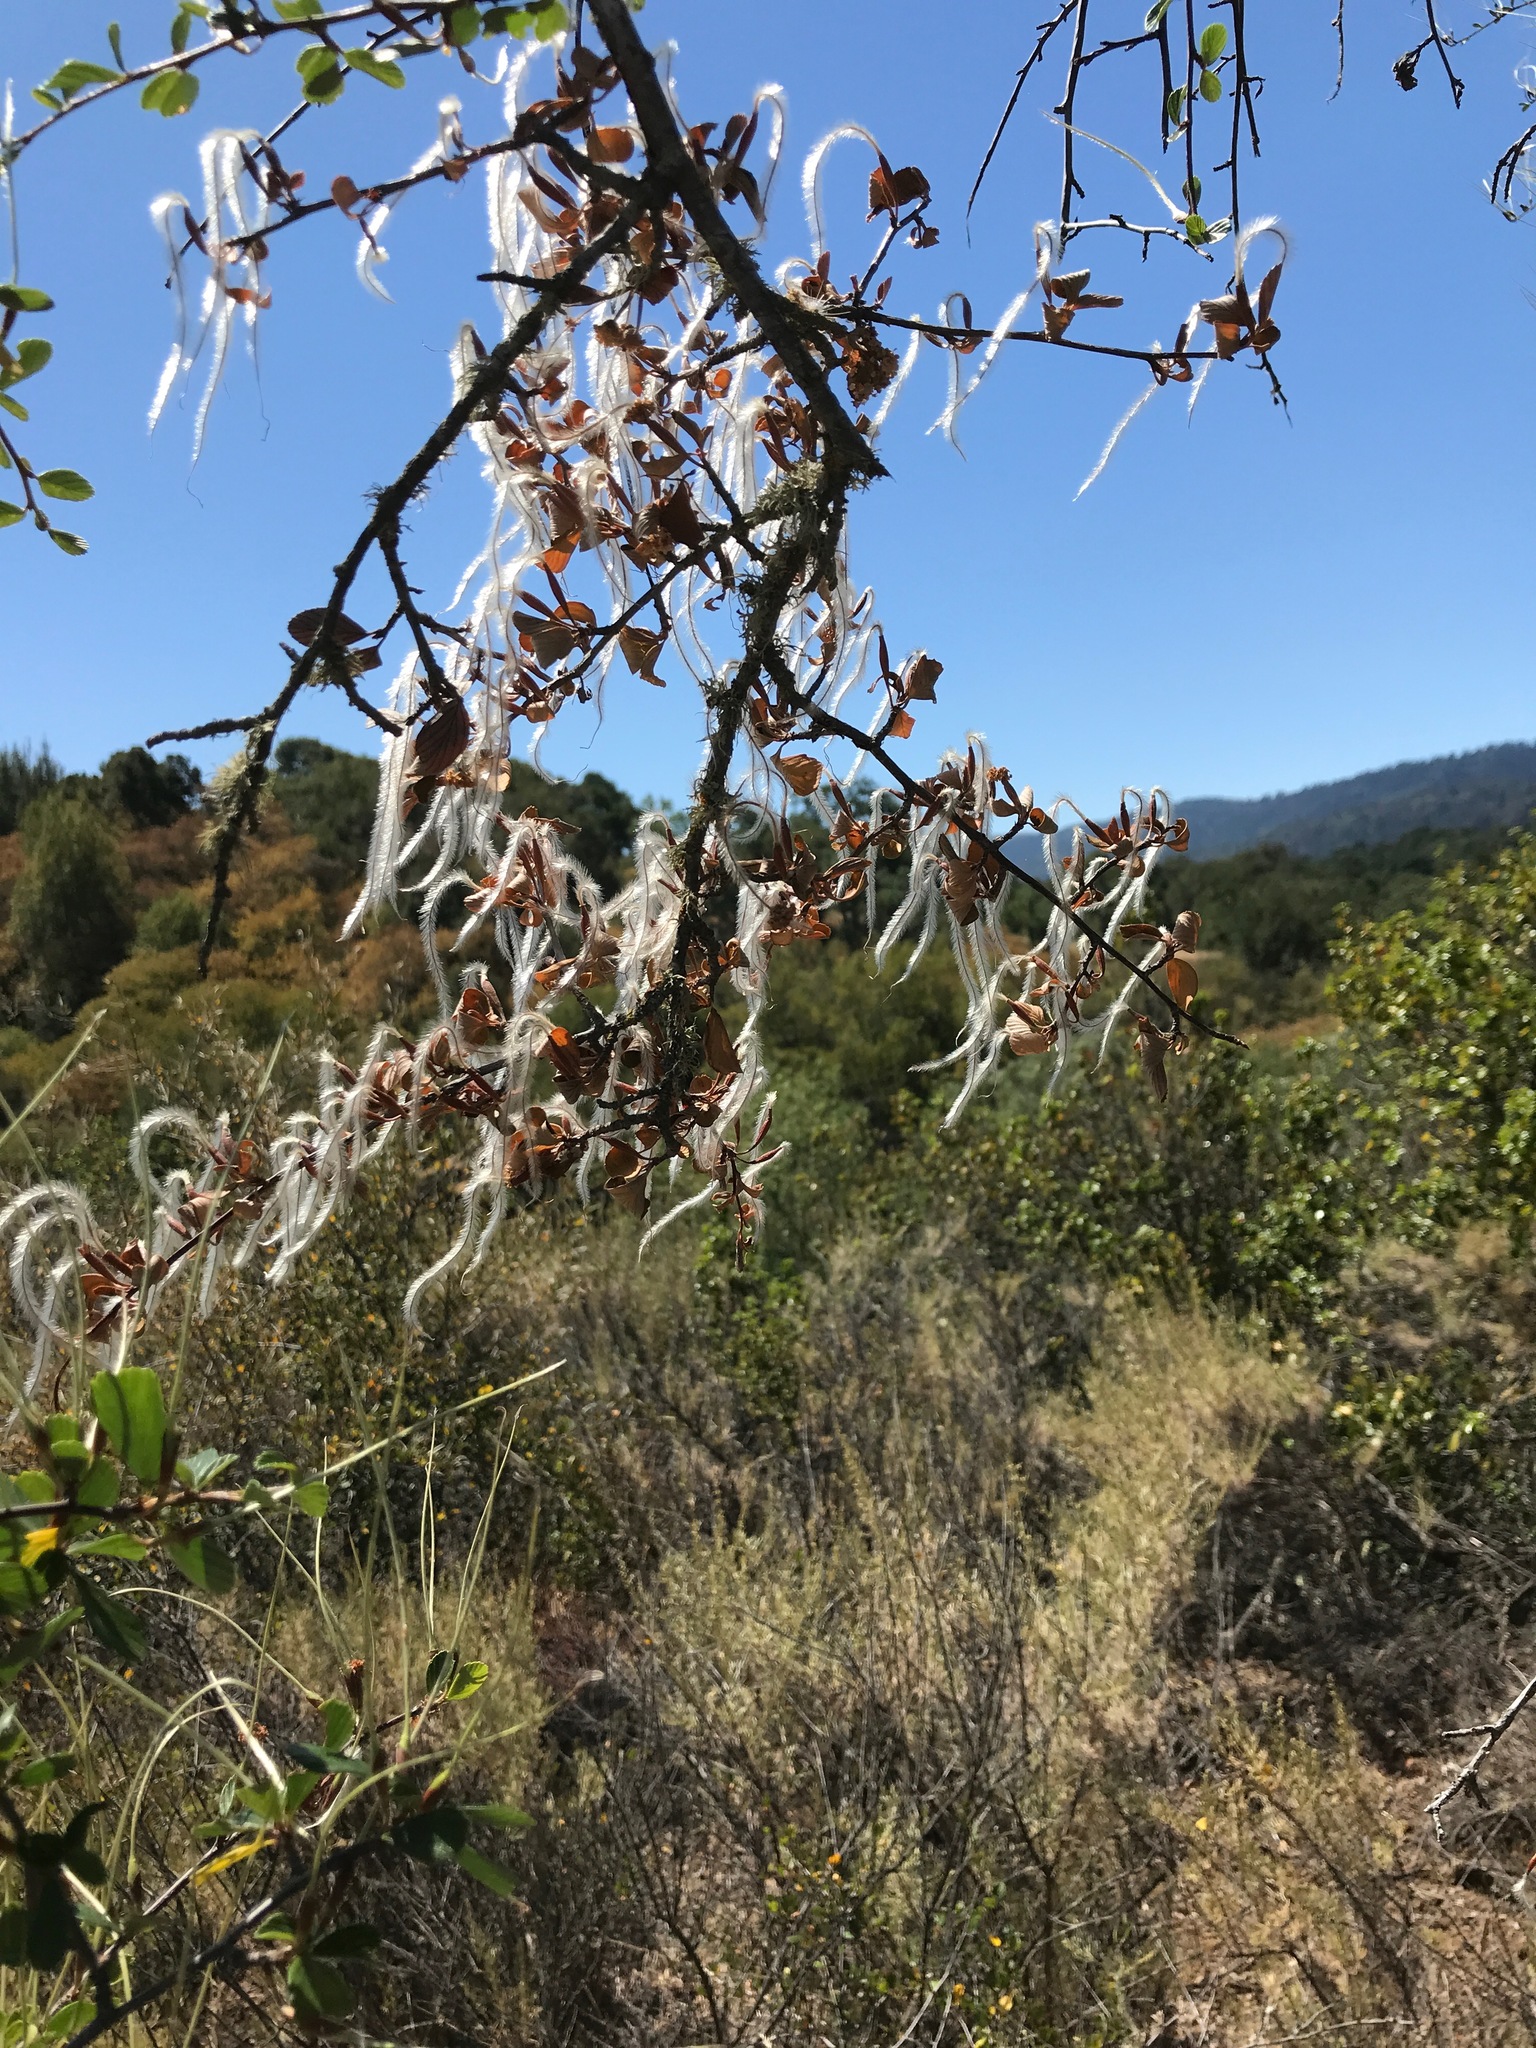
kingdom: Plantae
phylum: Tracheophyta
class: Magnoliopsida
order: Rosales
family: Rosaceae
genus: Cercocarpus
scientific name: Cercocarpus betuloides
